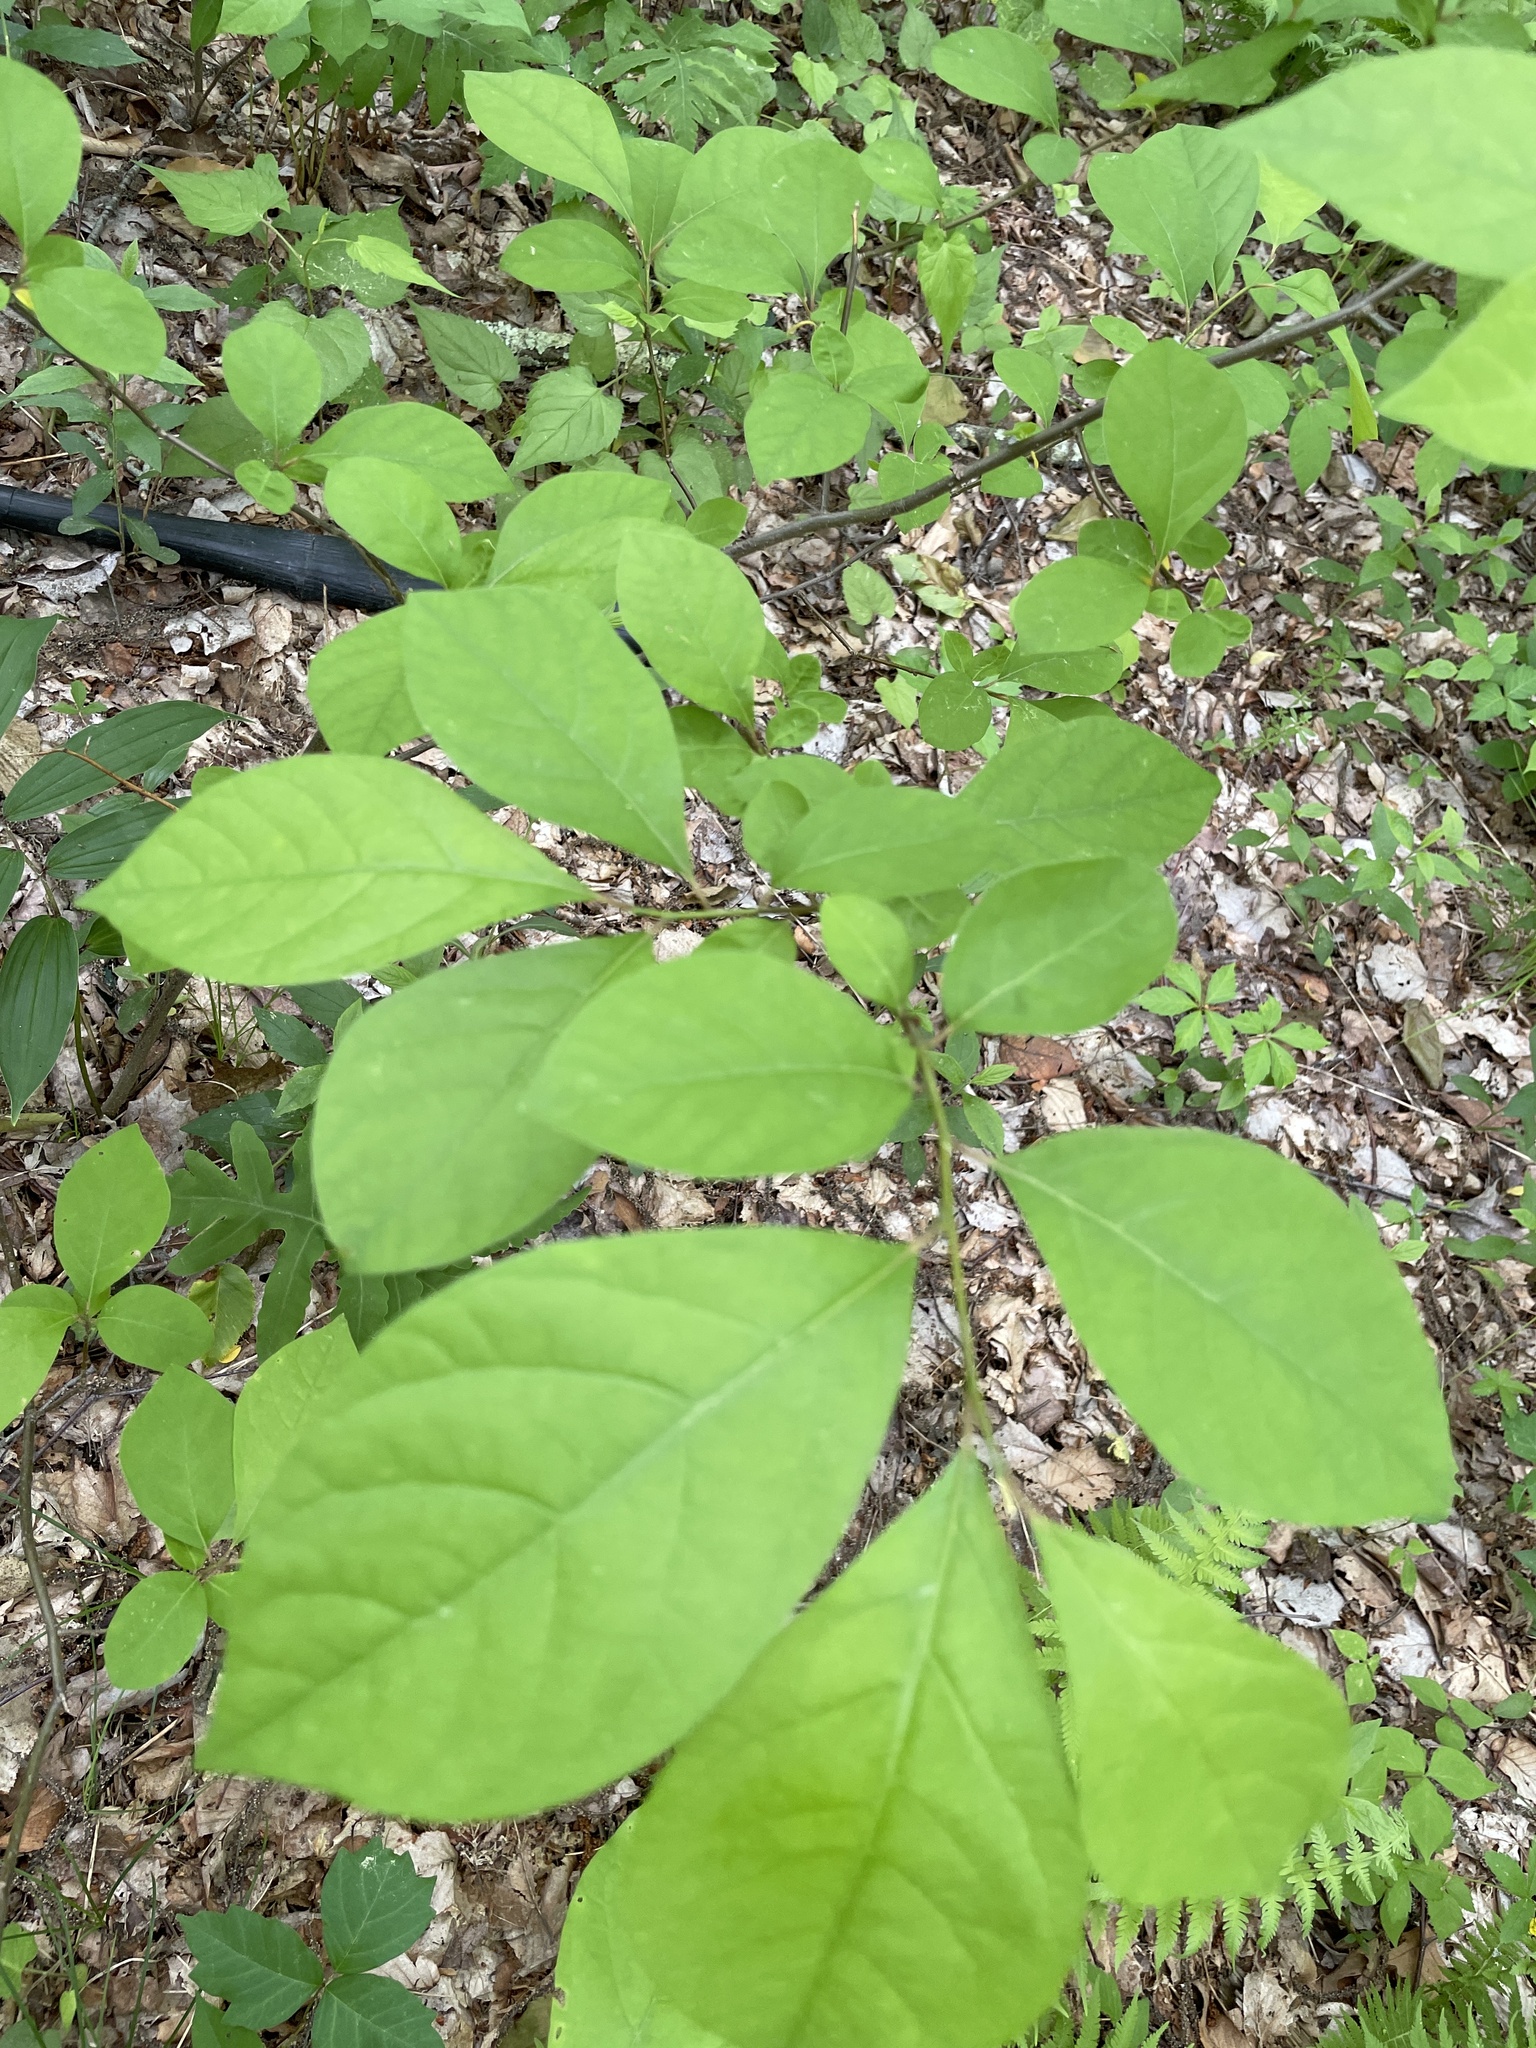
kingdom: Plantae
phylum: Tracheophyta
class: Magnoliopsida
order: Laurales
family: Lauraceae
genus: Lindera
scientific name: Lindera benzoin
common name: Spicebush
